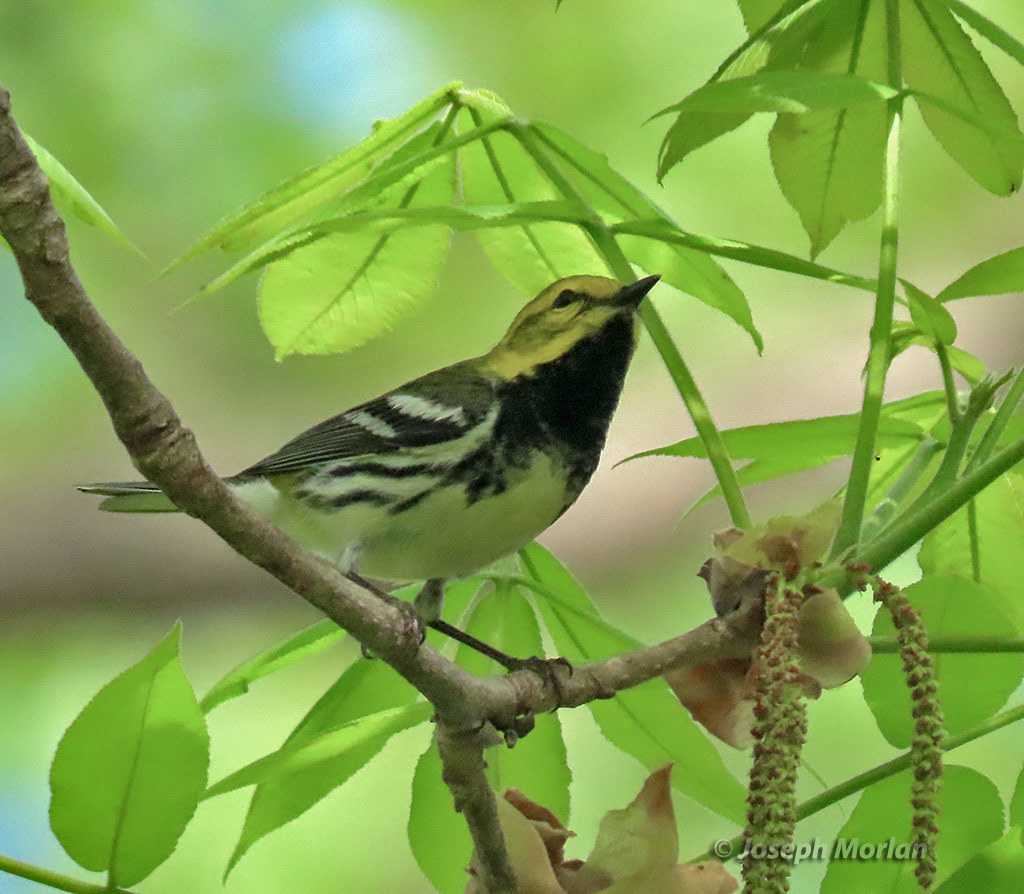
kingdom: Animalia
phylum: Chordata
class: Aves
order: Passeriformes
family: Parulidae
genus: Setophaga
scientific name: Setophaga virens
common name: Black-throated green warbler
